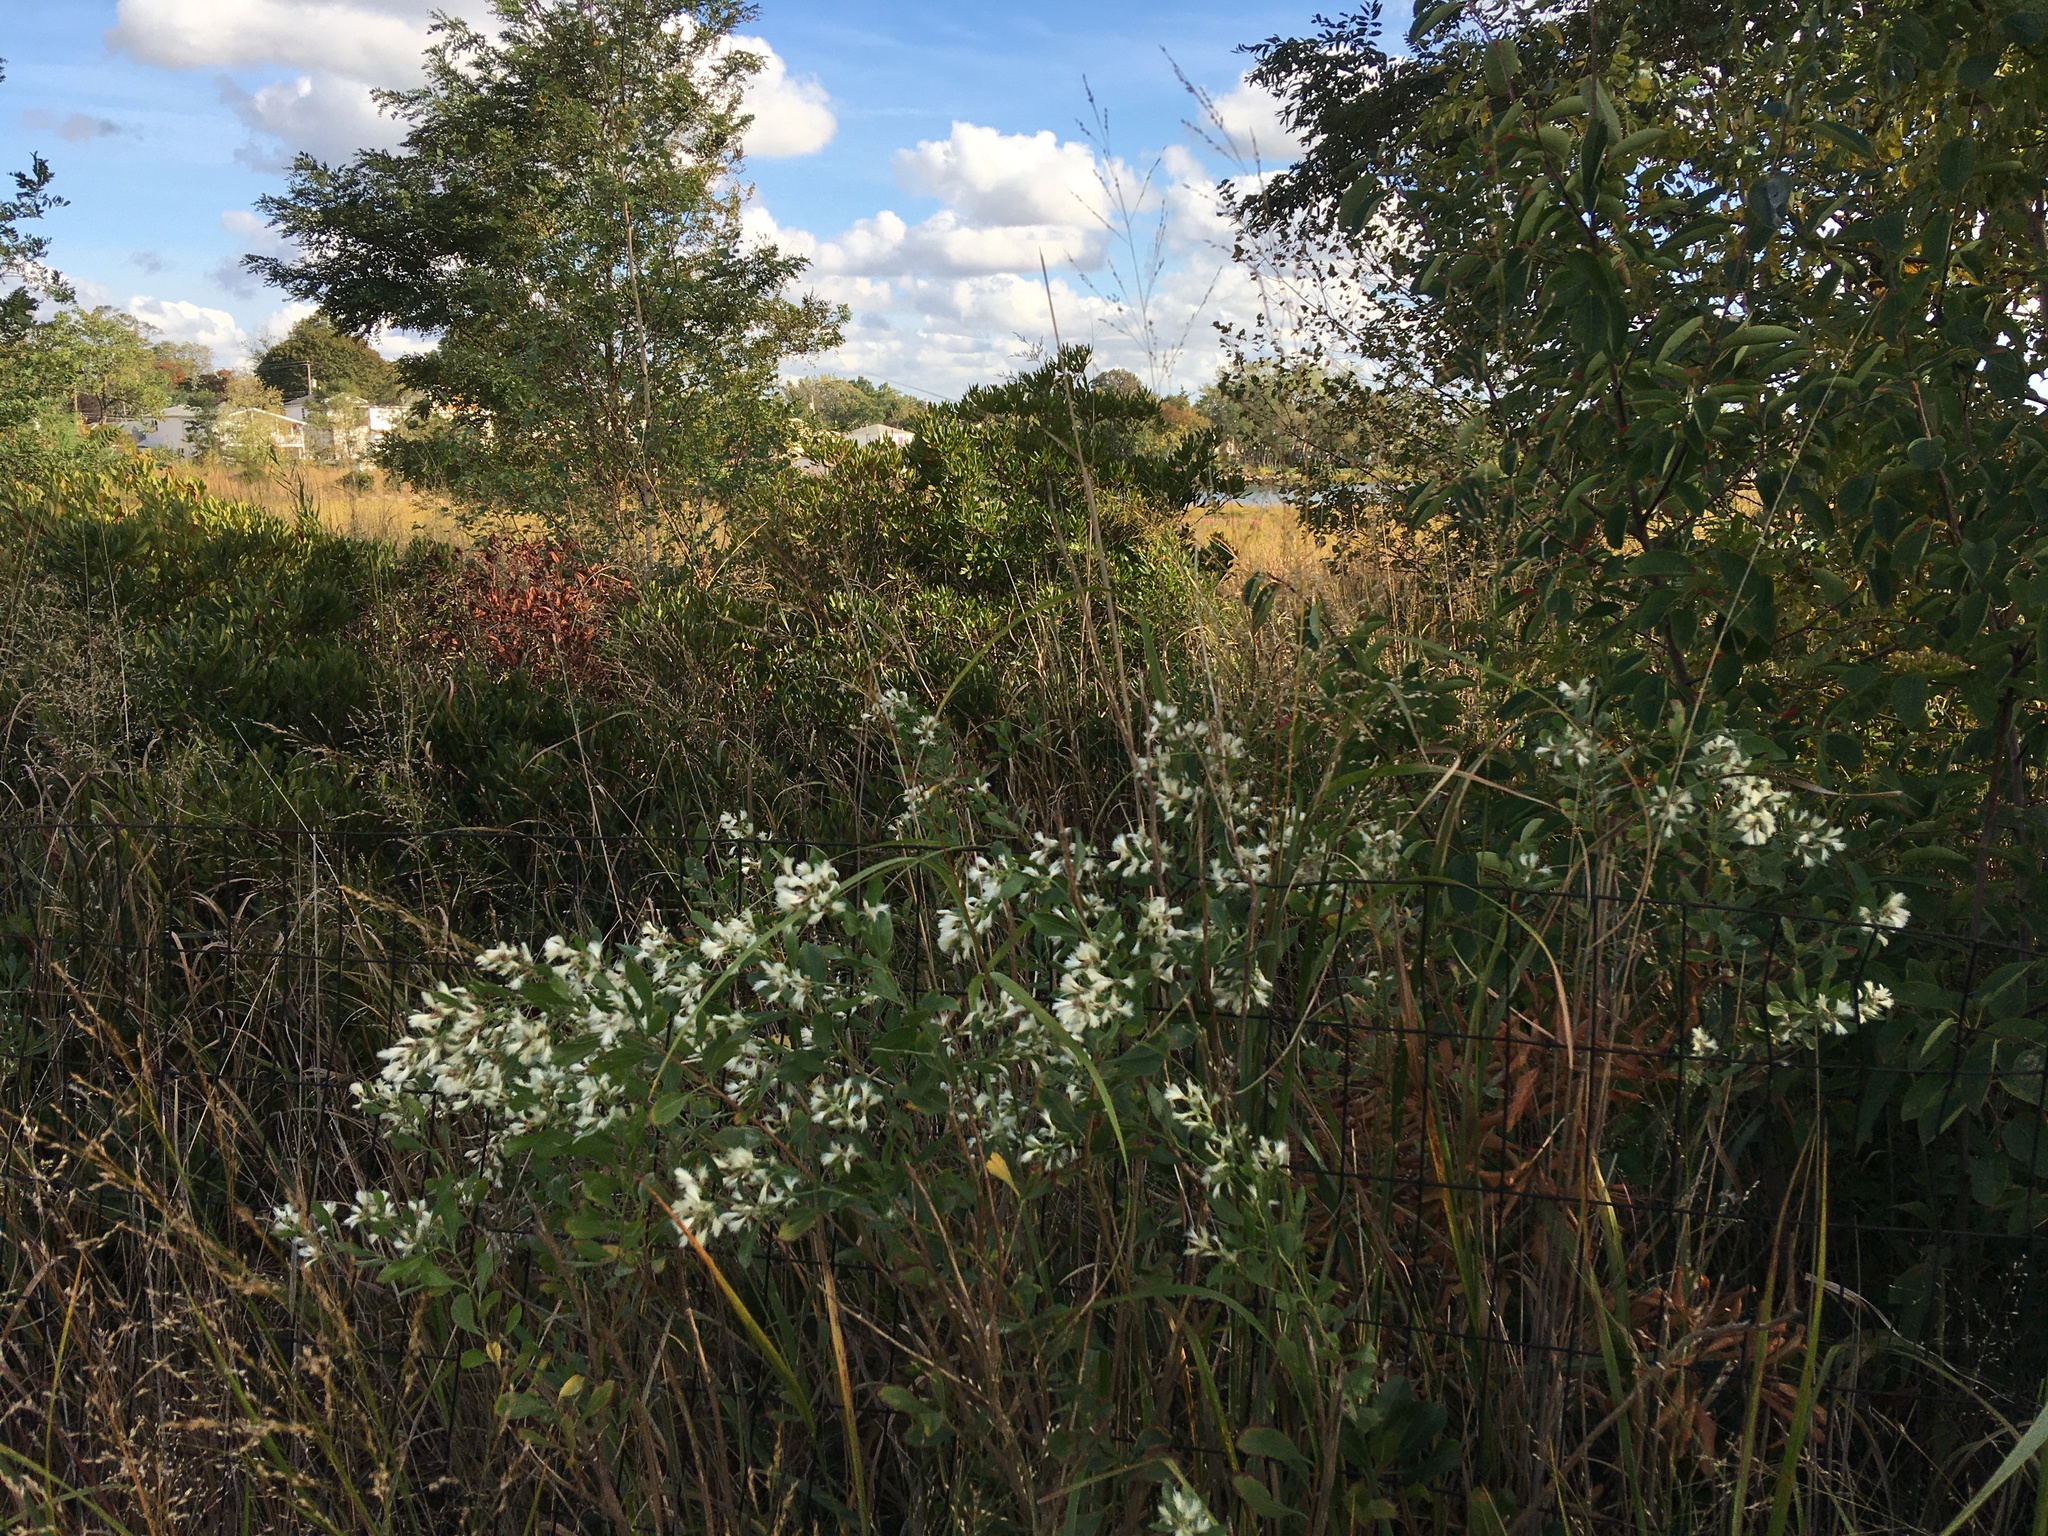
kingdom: Plantae
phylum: Tracheophyta
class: Magnoliopsida
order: Asterales
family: Asteraceae
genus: Baccharis
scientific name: Baccharis halimifolia
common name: Eastern baccharis
